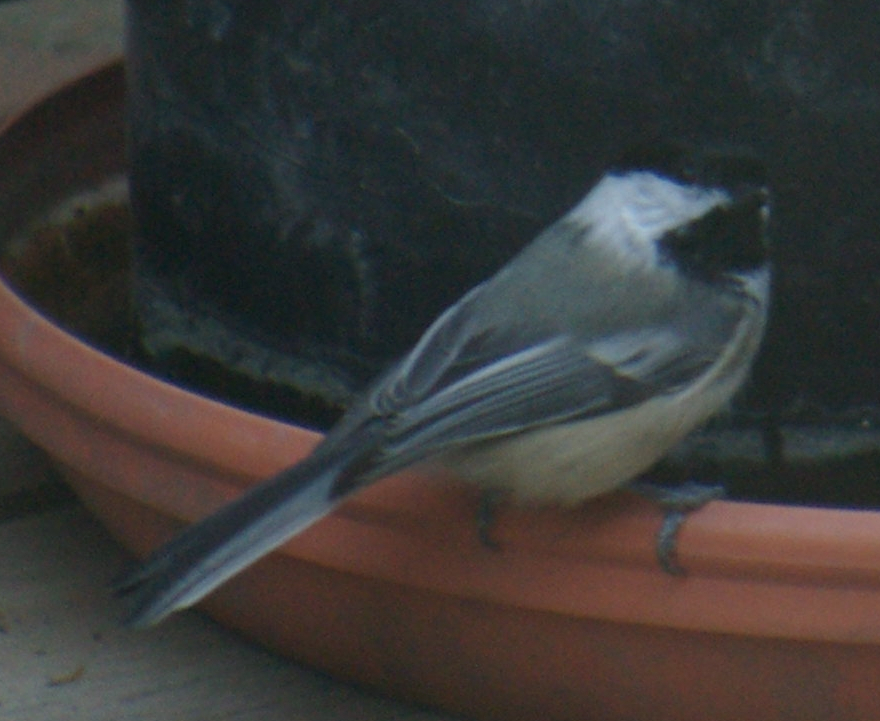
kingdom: Animalia
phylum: Chordata
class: Aves
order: Passeriformes
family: Paridae
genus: Poecile
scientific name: Poecile atricapillus
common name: Black-capped chickadee
